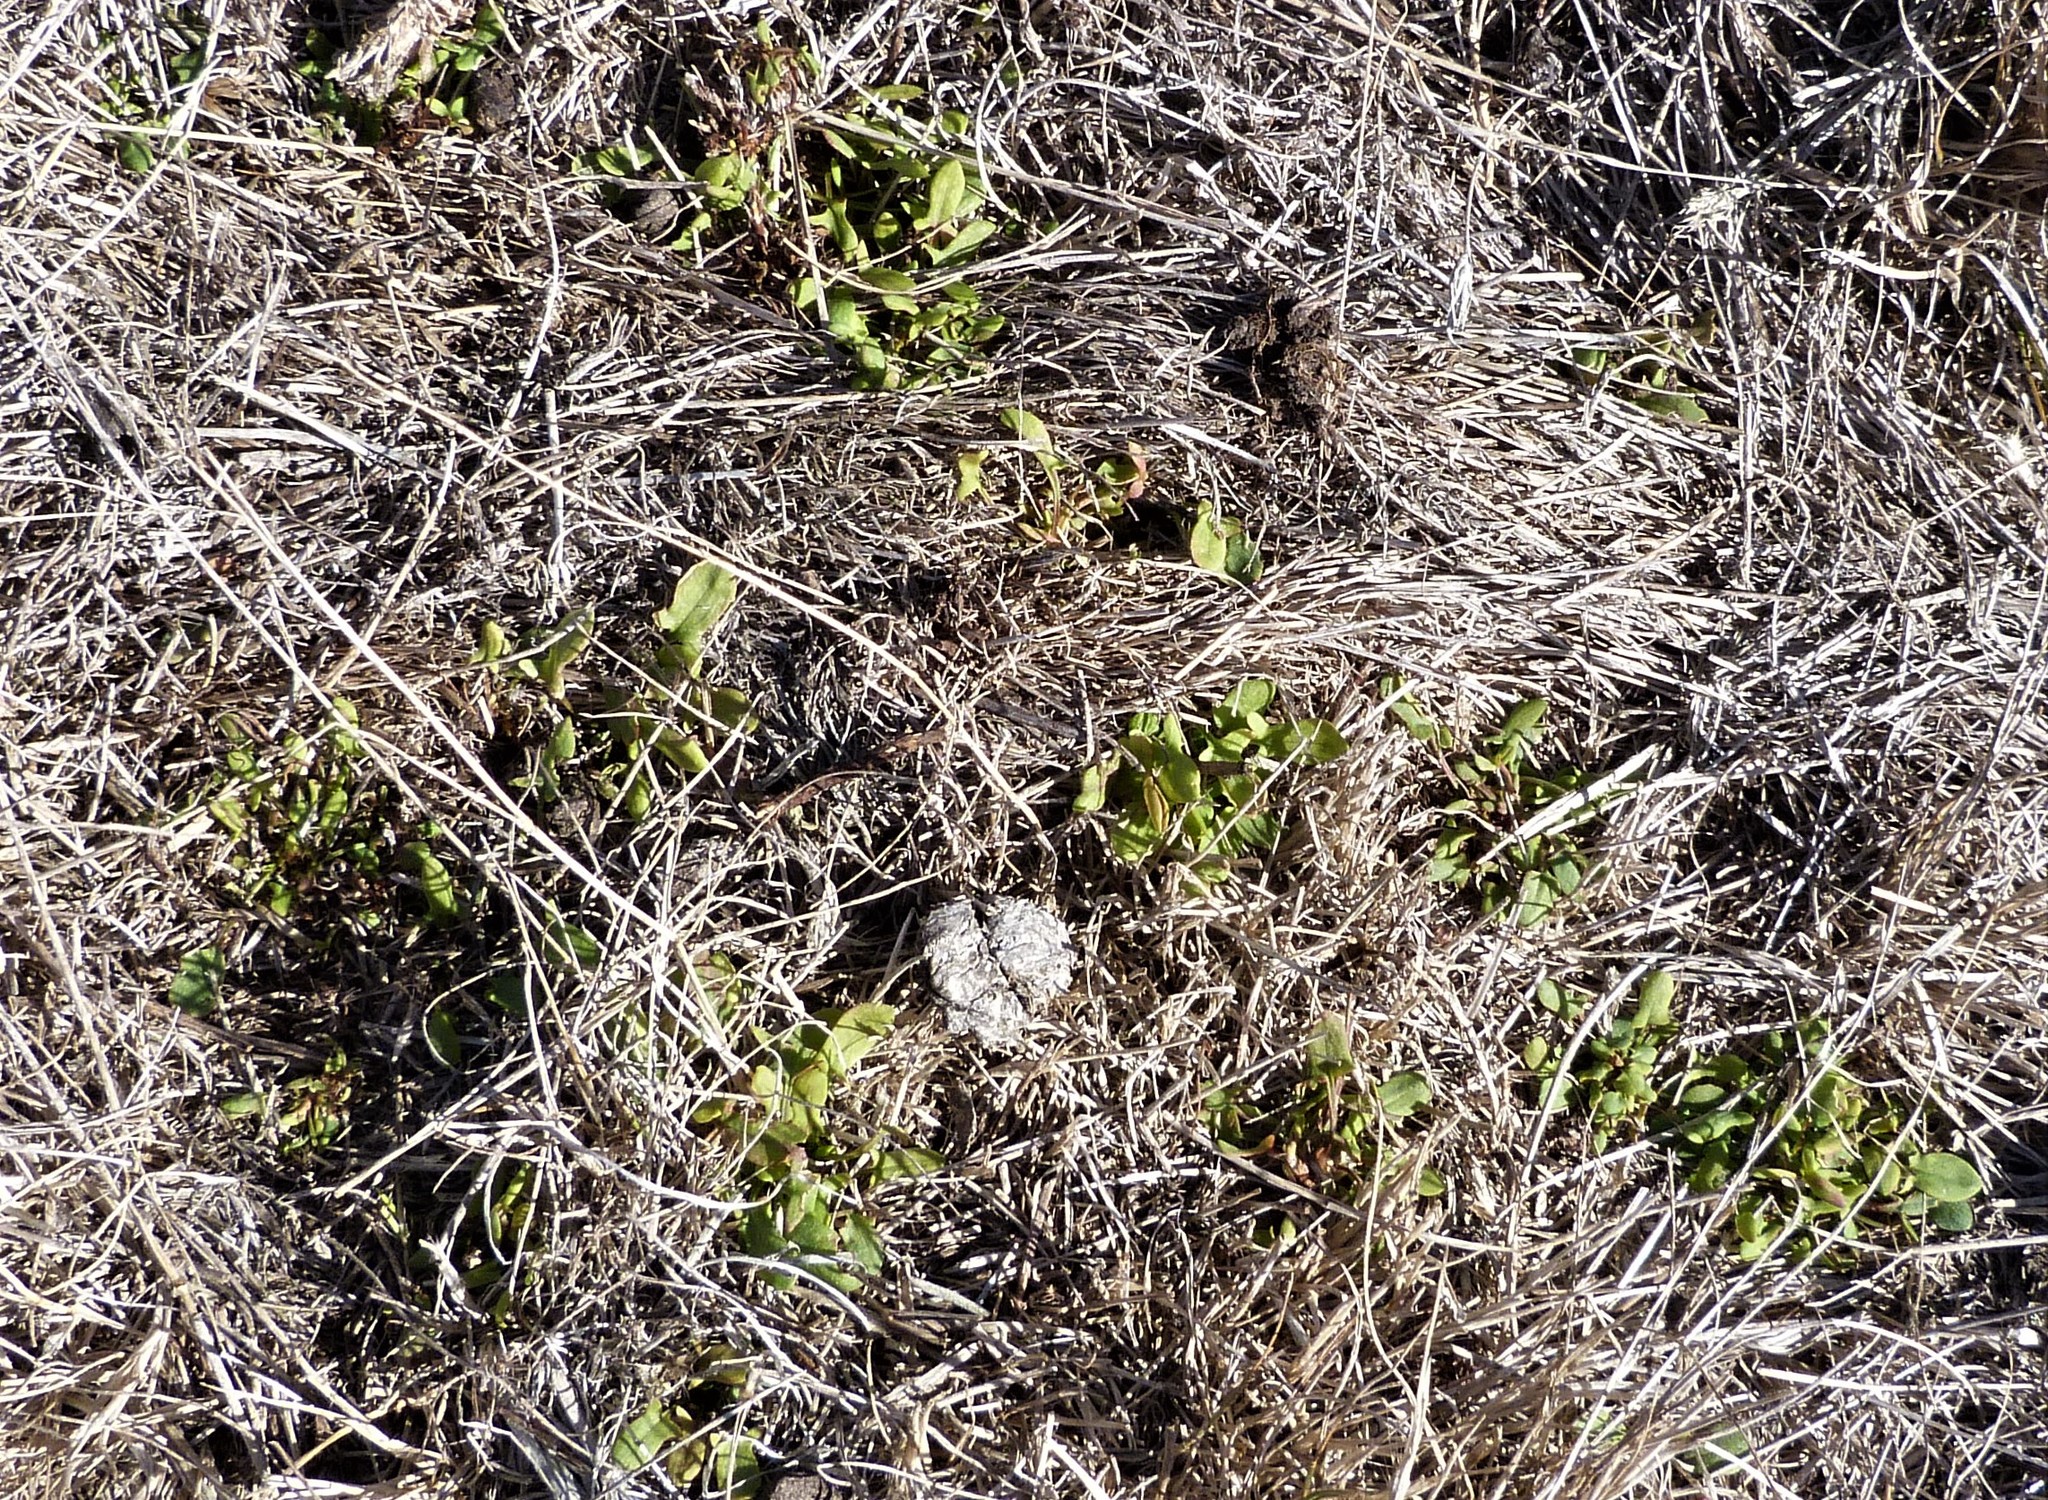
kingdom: Plantae
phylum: Tracheophyta
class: Magnoliopsida
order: Caryophyllales
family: Polygonaceae
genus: Rumex
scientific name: Rumex acetosella
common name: Common sheep sorrel
